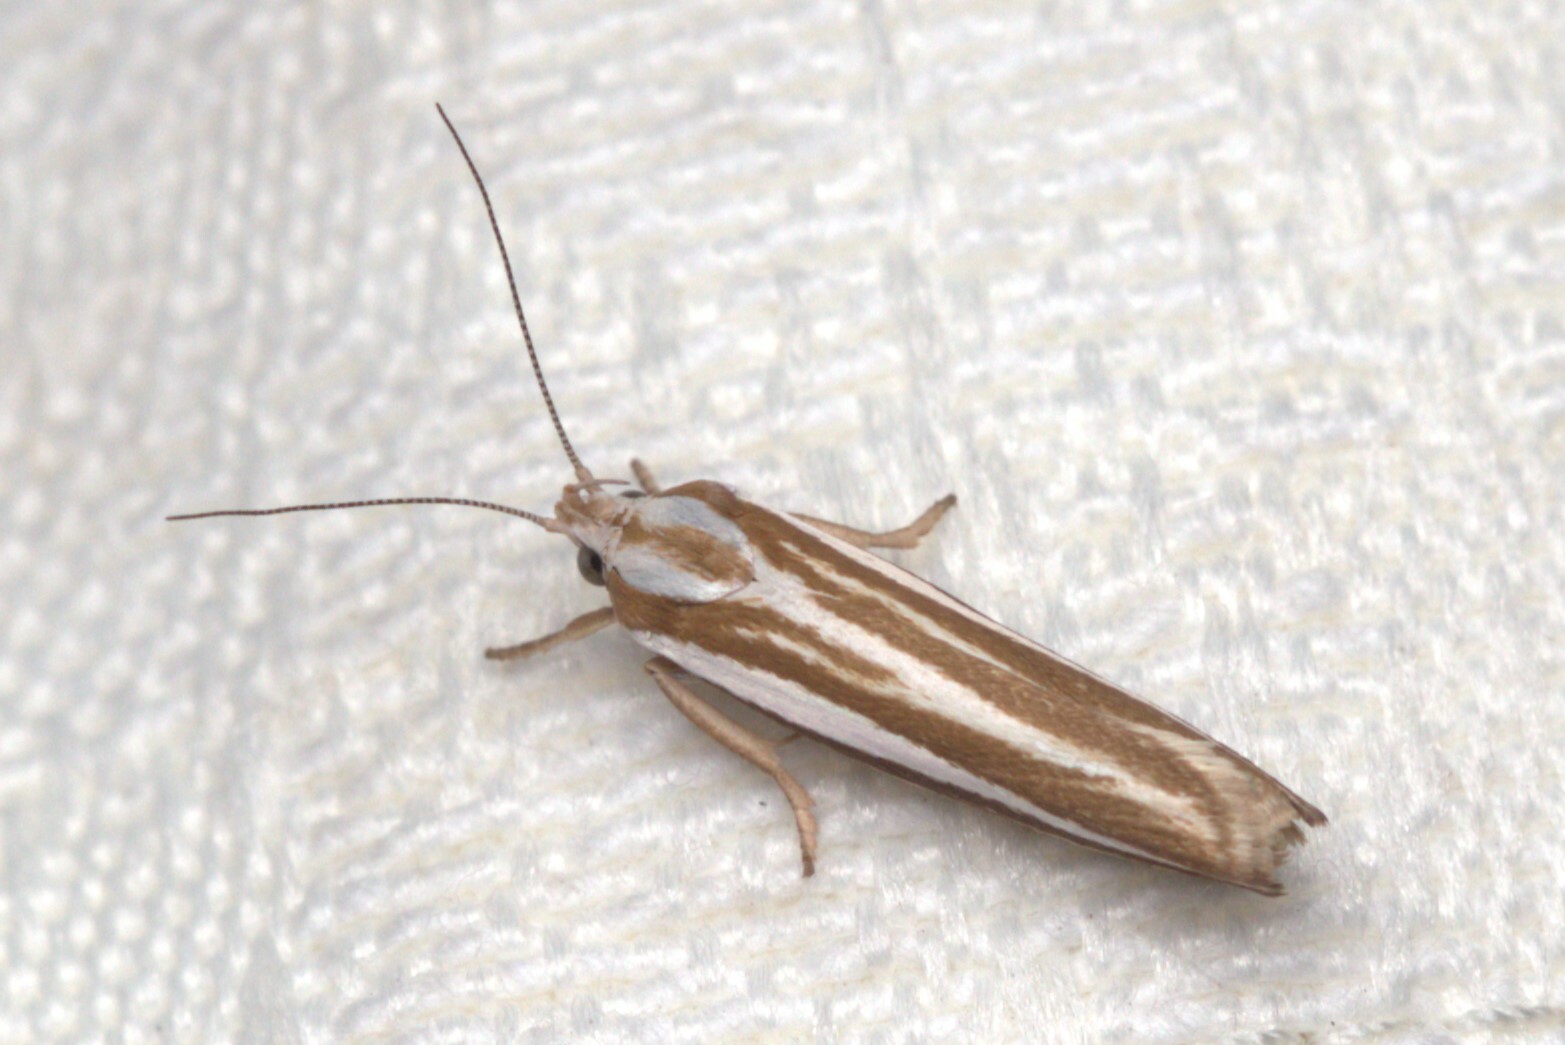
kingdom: Animalia
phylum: Arthropoda
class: Insecta
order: Lepidoptera
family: Xyloryctidae
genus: Catoryctis
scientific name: Catoryctis subparallela
